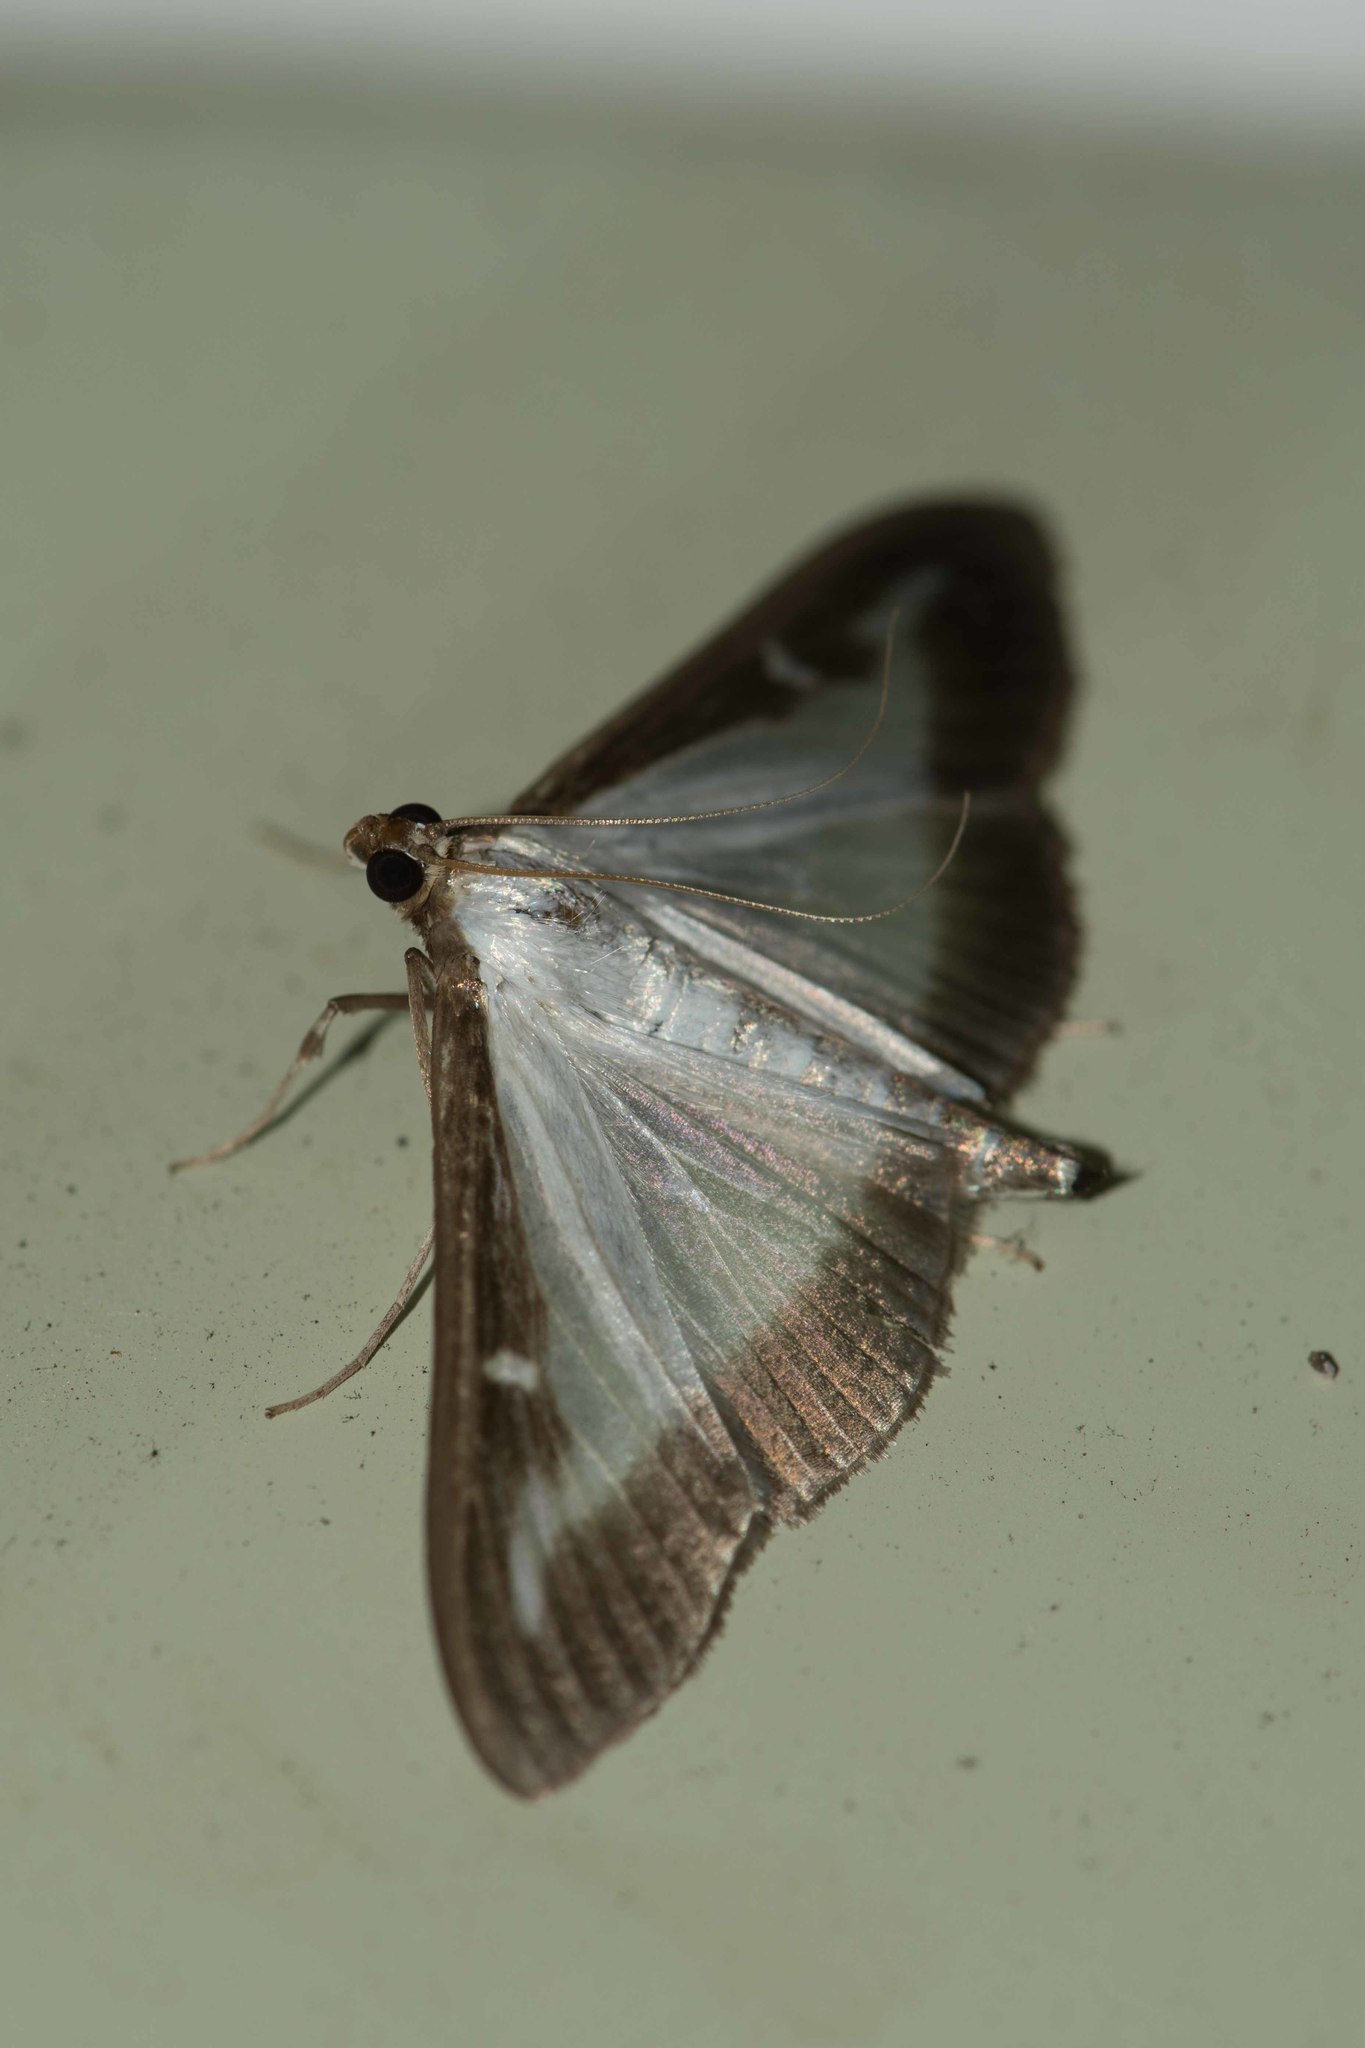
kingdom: Animalia
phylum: Arthropoda
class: Insecta
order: Lepidoptera
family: Crambidae
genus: Cydalima
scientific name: Cydalima perspectalis
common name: Box tree moth
